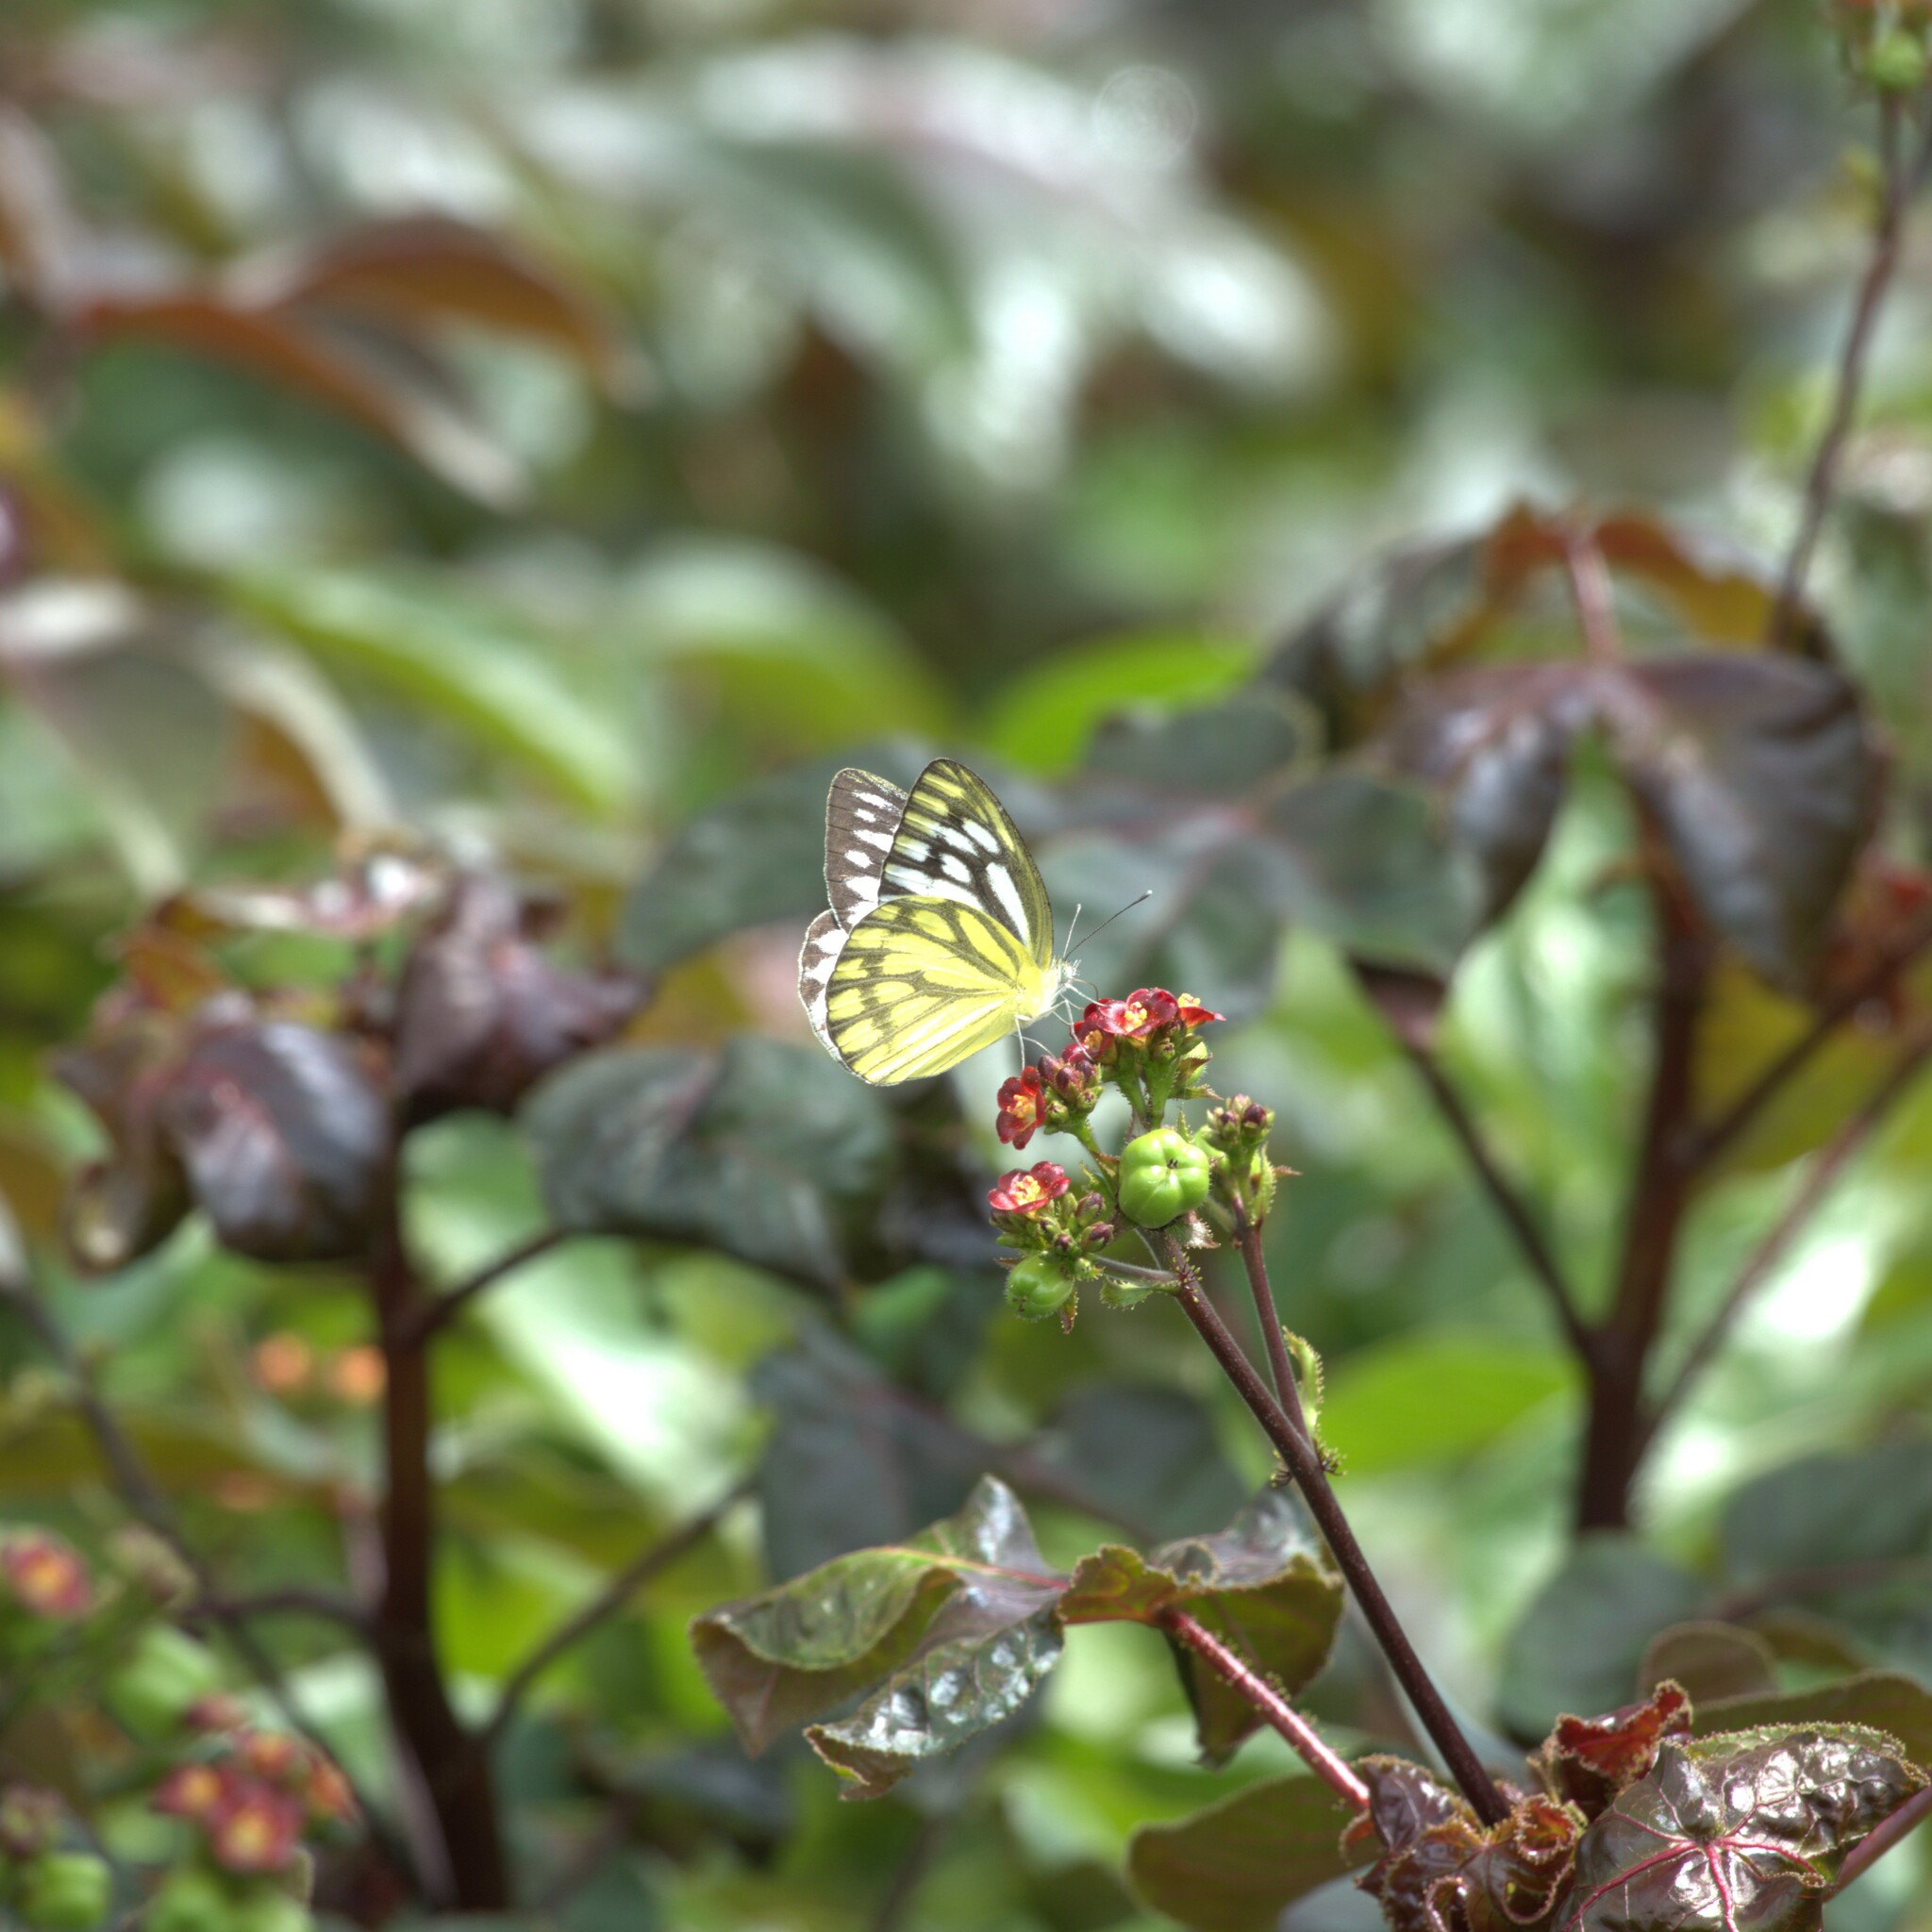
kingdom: Animalia
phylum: Arthropoda
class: Insecta
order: Lepidoptera
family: Pieridae
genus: Cepora
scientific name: Cepora nerissa
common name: Common gull
